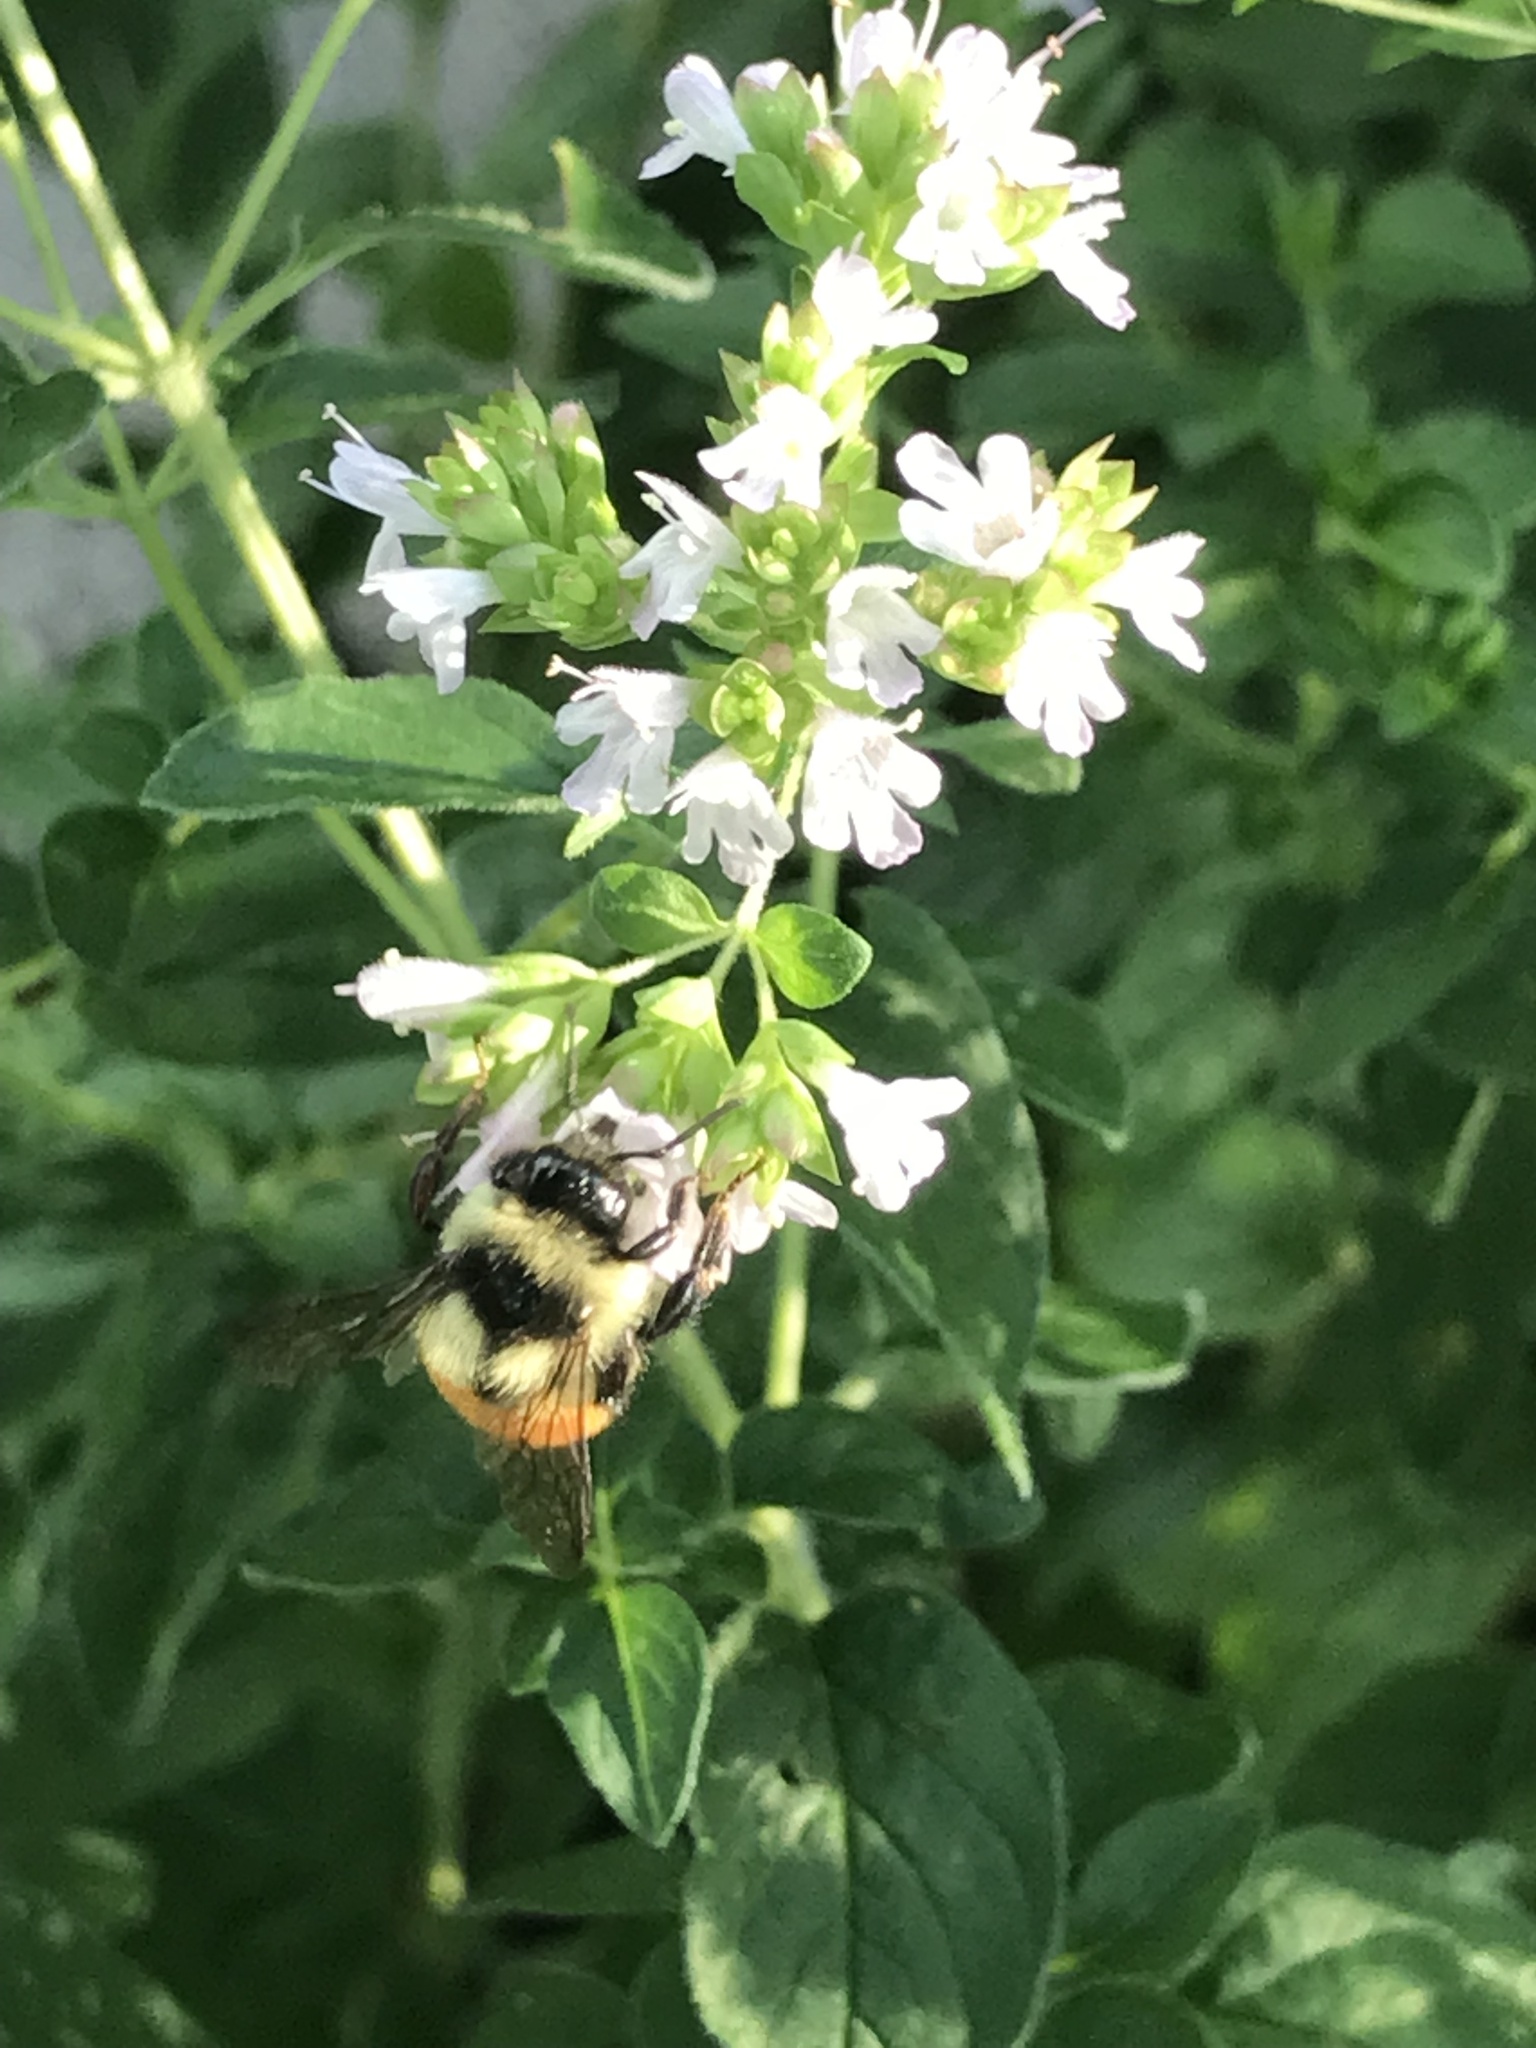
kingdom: Animalia
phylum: Arthropoda
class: Insecta
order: Hymenoptera
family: Apidae
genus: Bombus
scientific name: Bombus ternarius
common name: Tri-colored bumble bee
